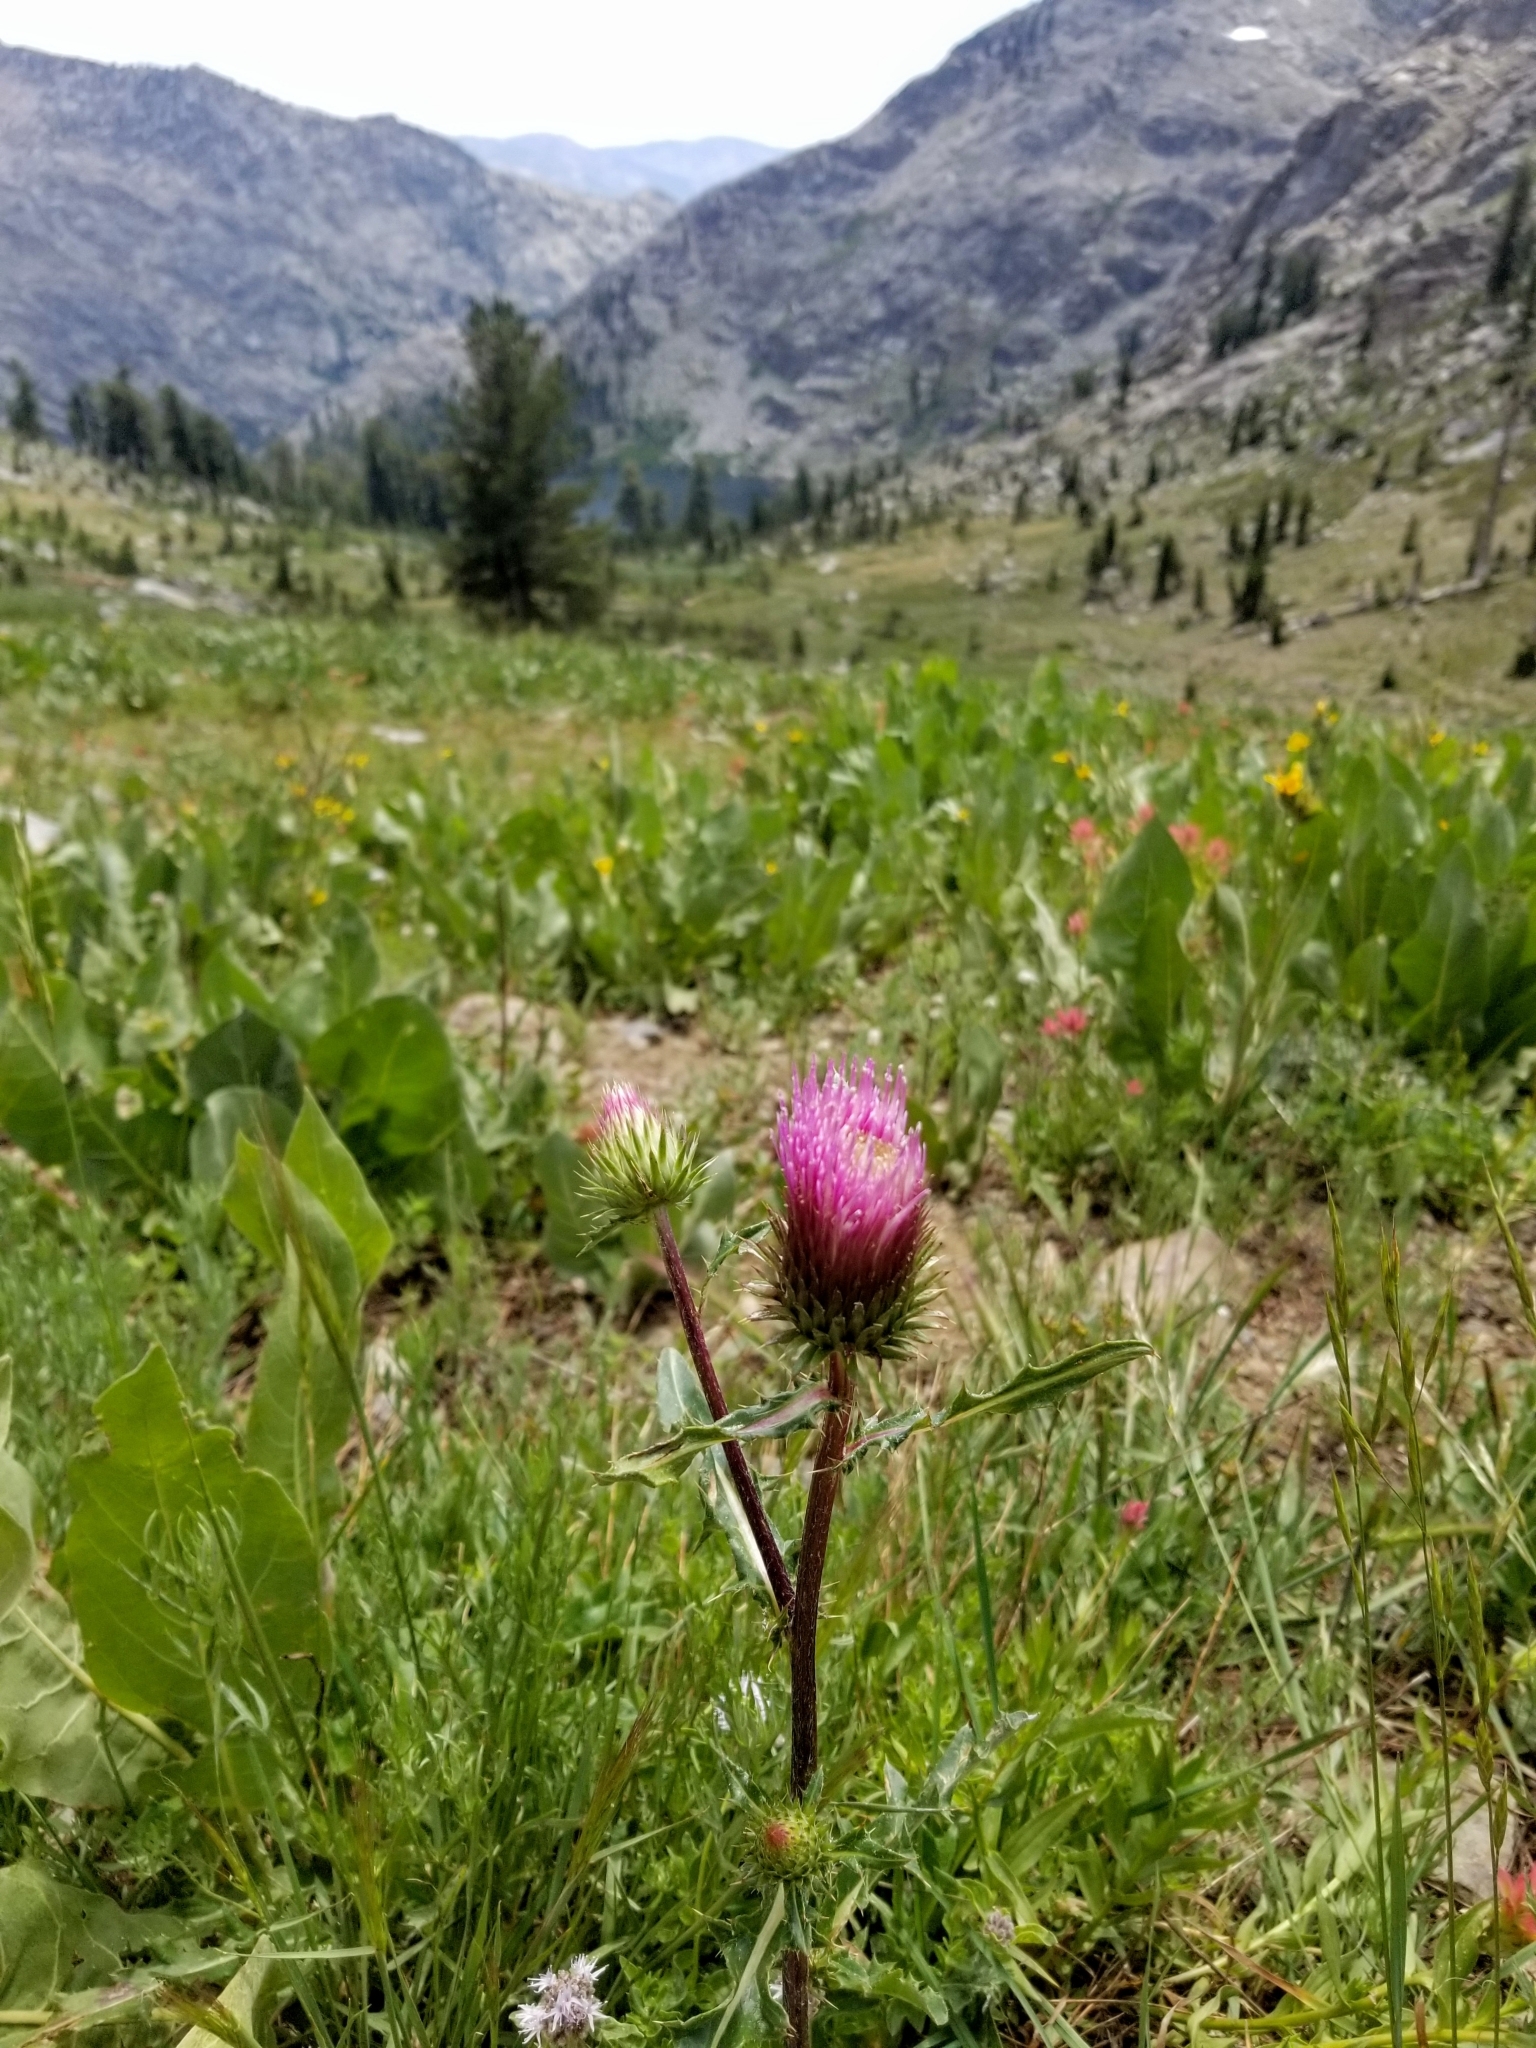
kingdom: Plantae
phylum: Tracheophyta
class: Magnoliopsida
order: Asterales
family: Asteraceae
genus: Cirsium
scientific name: Cirsium andersonii
